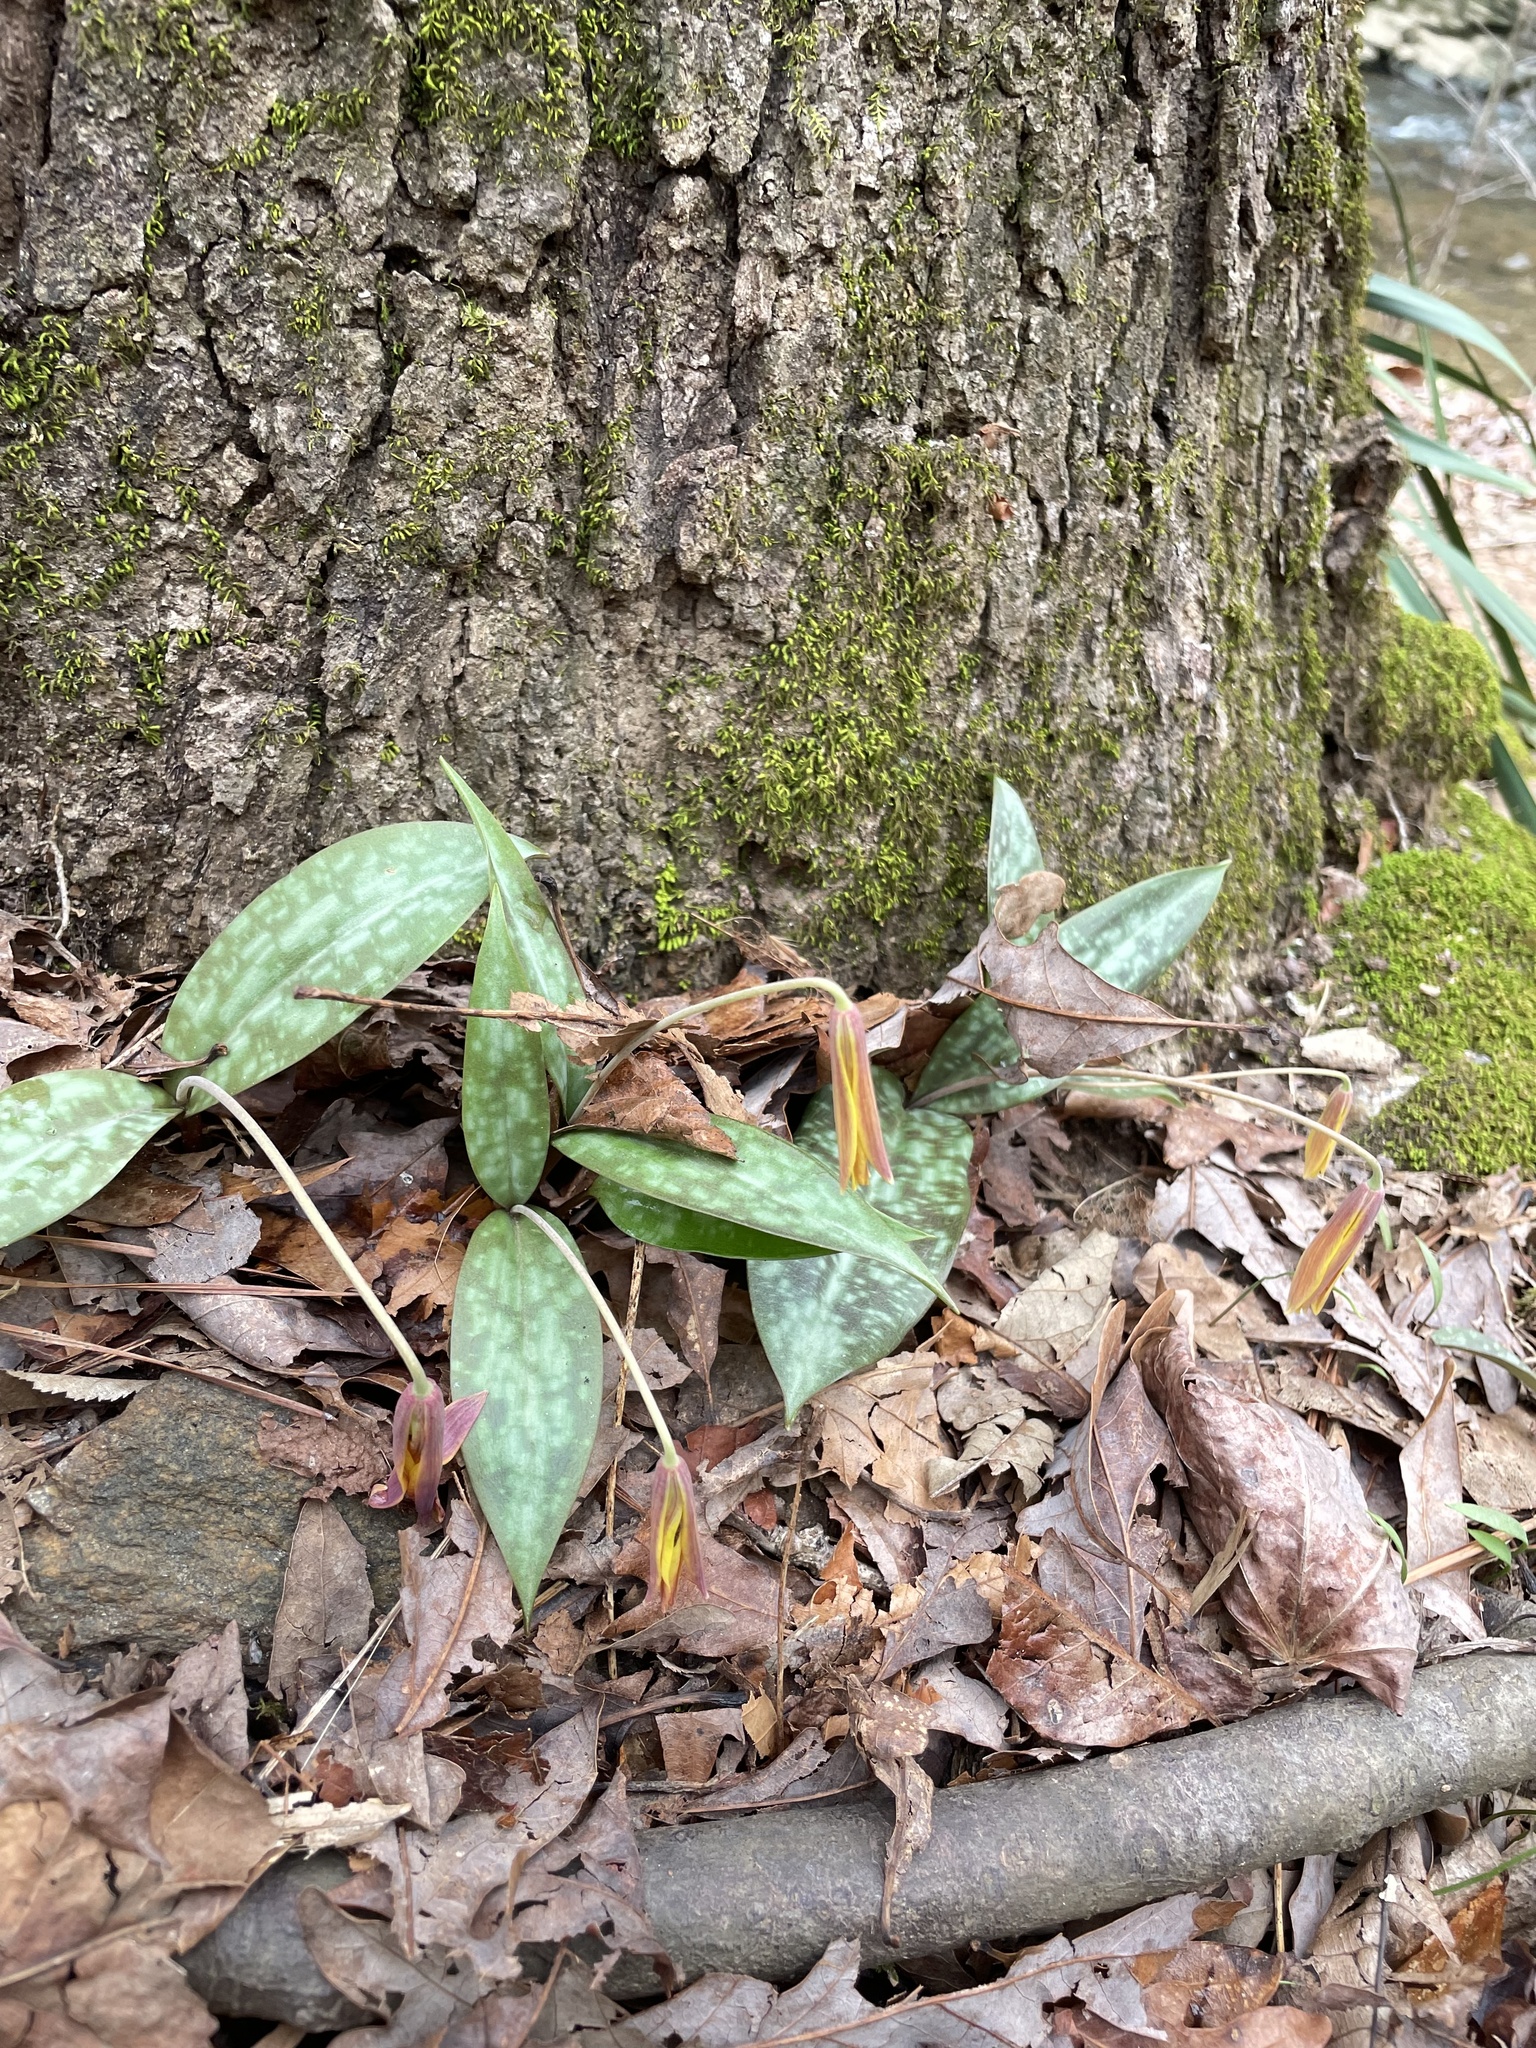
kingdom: Plantae
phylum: Tracheophyta
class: Liliopsida
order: Liliales
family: Liliaceae
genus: Erythronium
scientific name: Erythronium umbilicatum
